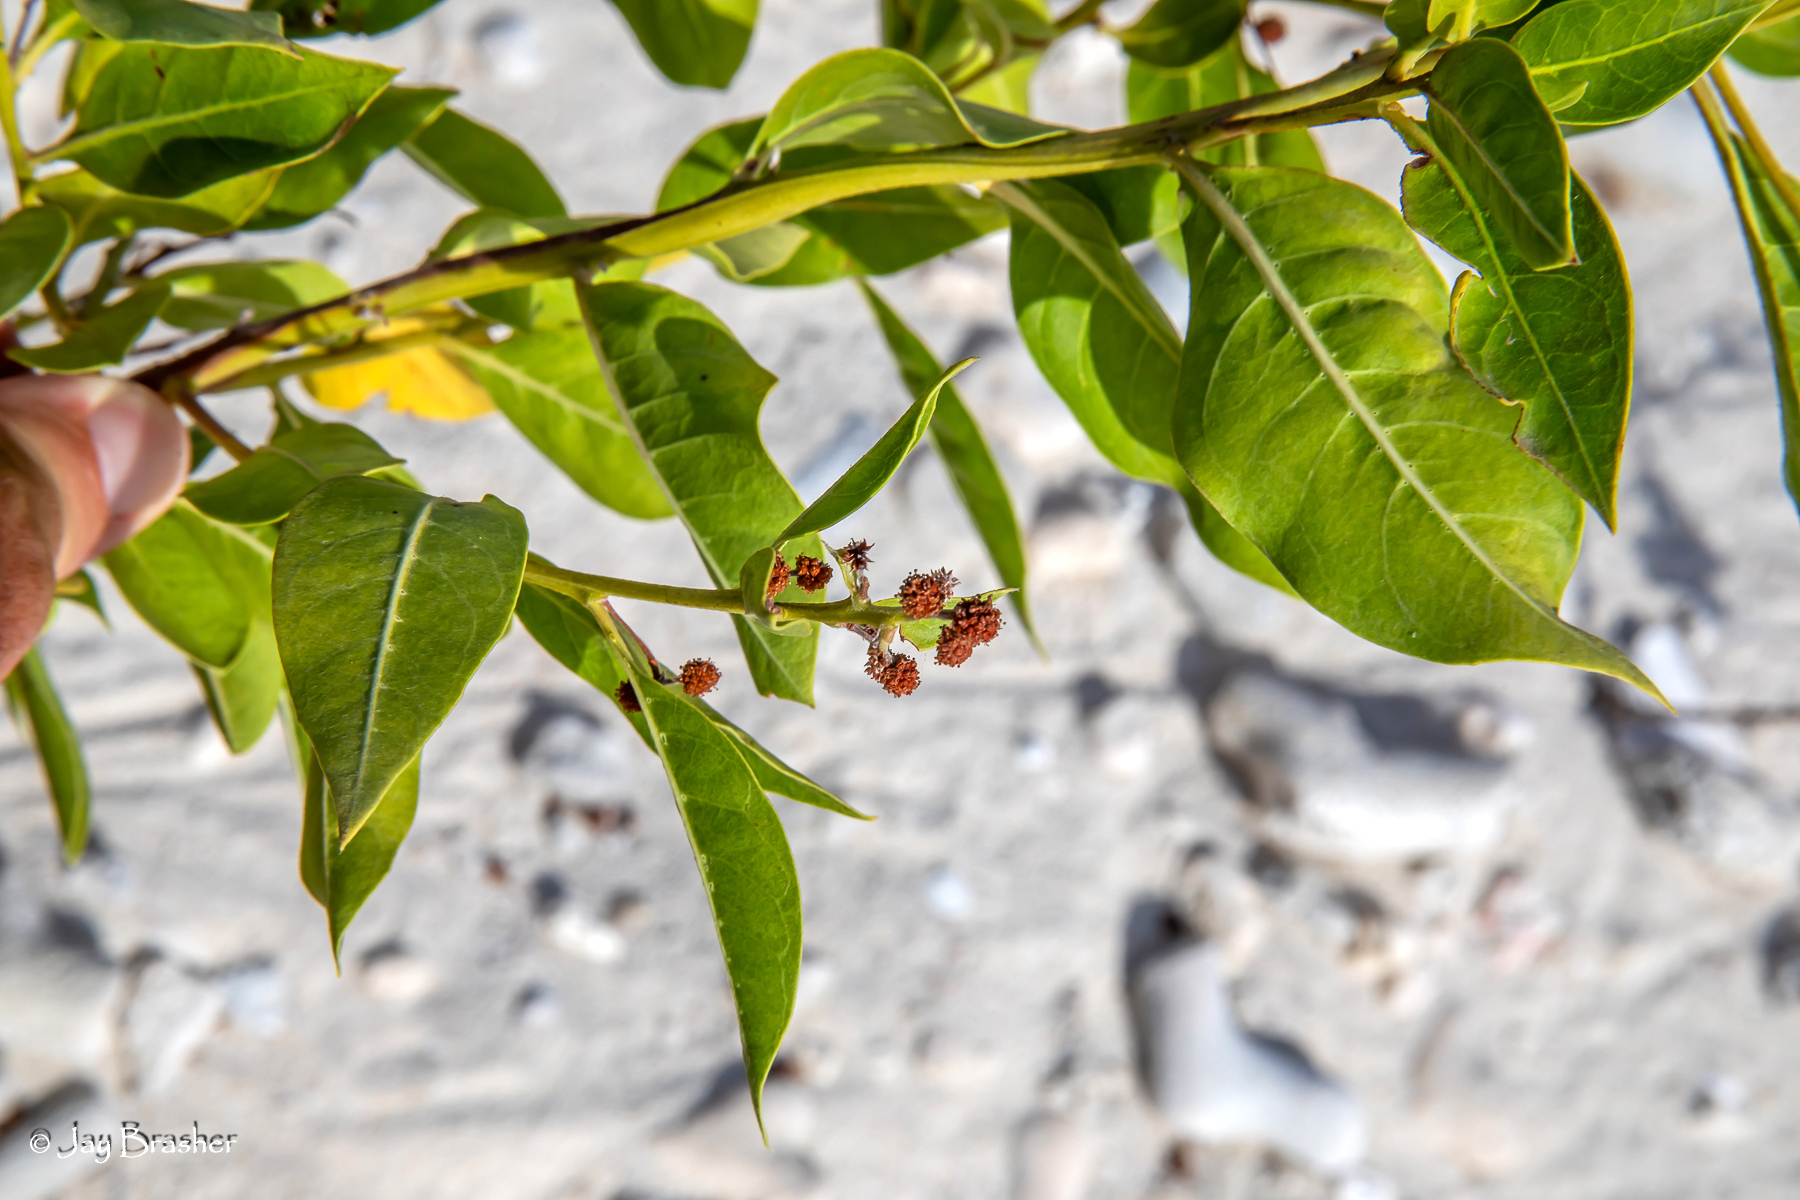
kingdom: Plantae
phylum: Tracheophyta
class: Magnoliopsida
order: Myrtales
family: Combretaceae
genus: Conocarpus
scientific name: Conocarpus erectus
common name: Button mangrove
